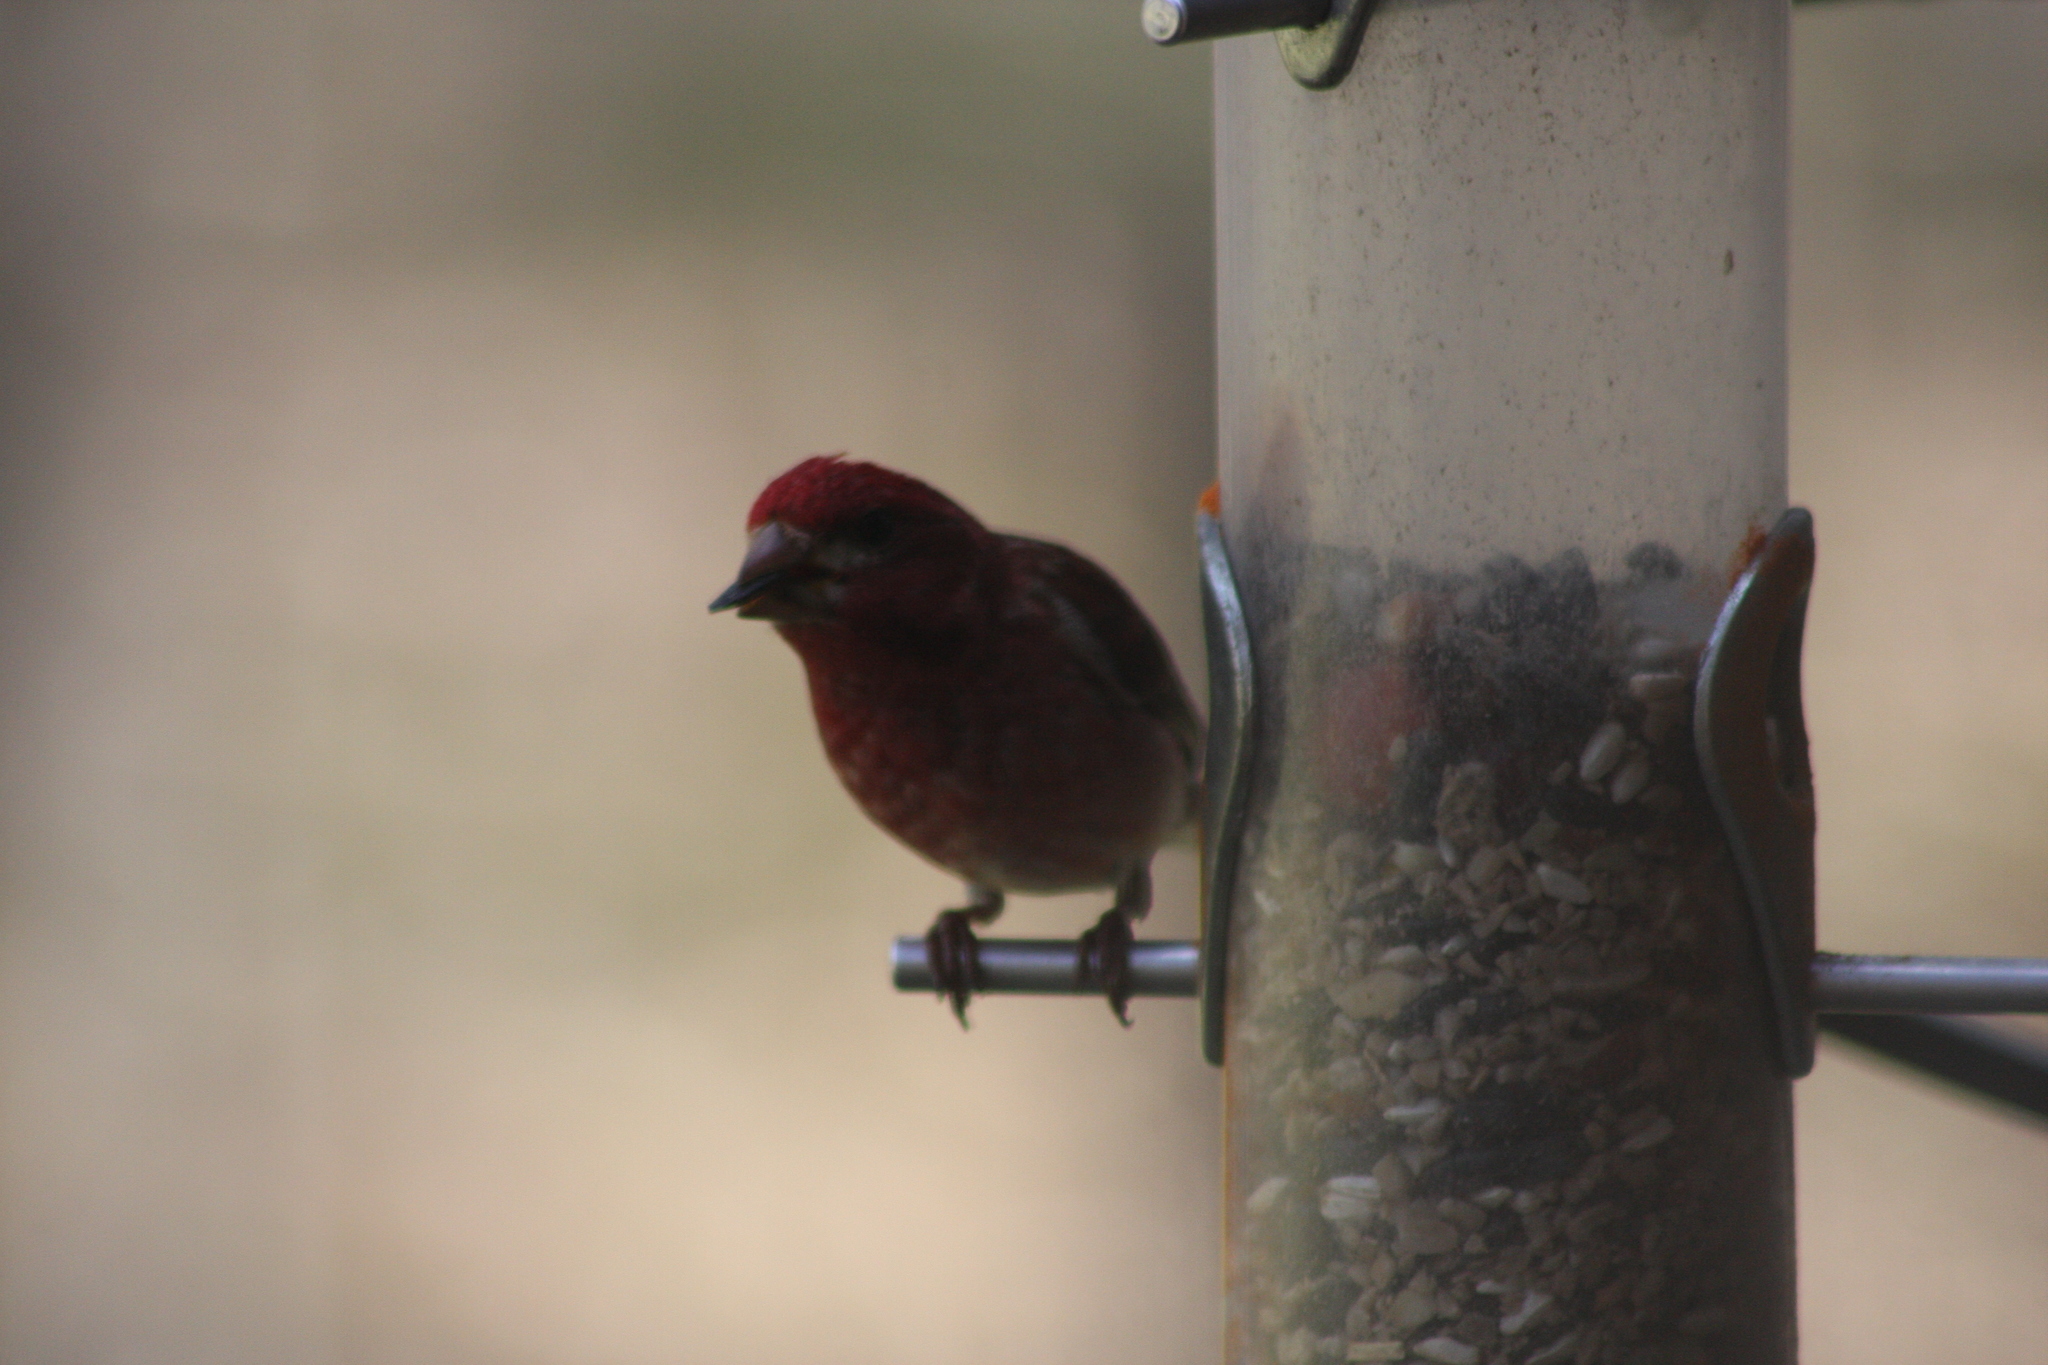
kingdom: Animalia
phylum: Chordata
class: Aves
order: Passeriformes
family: Fringillidae
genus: Haemorhous
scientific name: Haemorhous purpureus
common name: Purple finch
